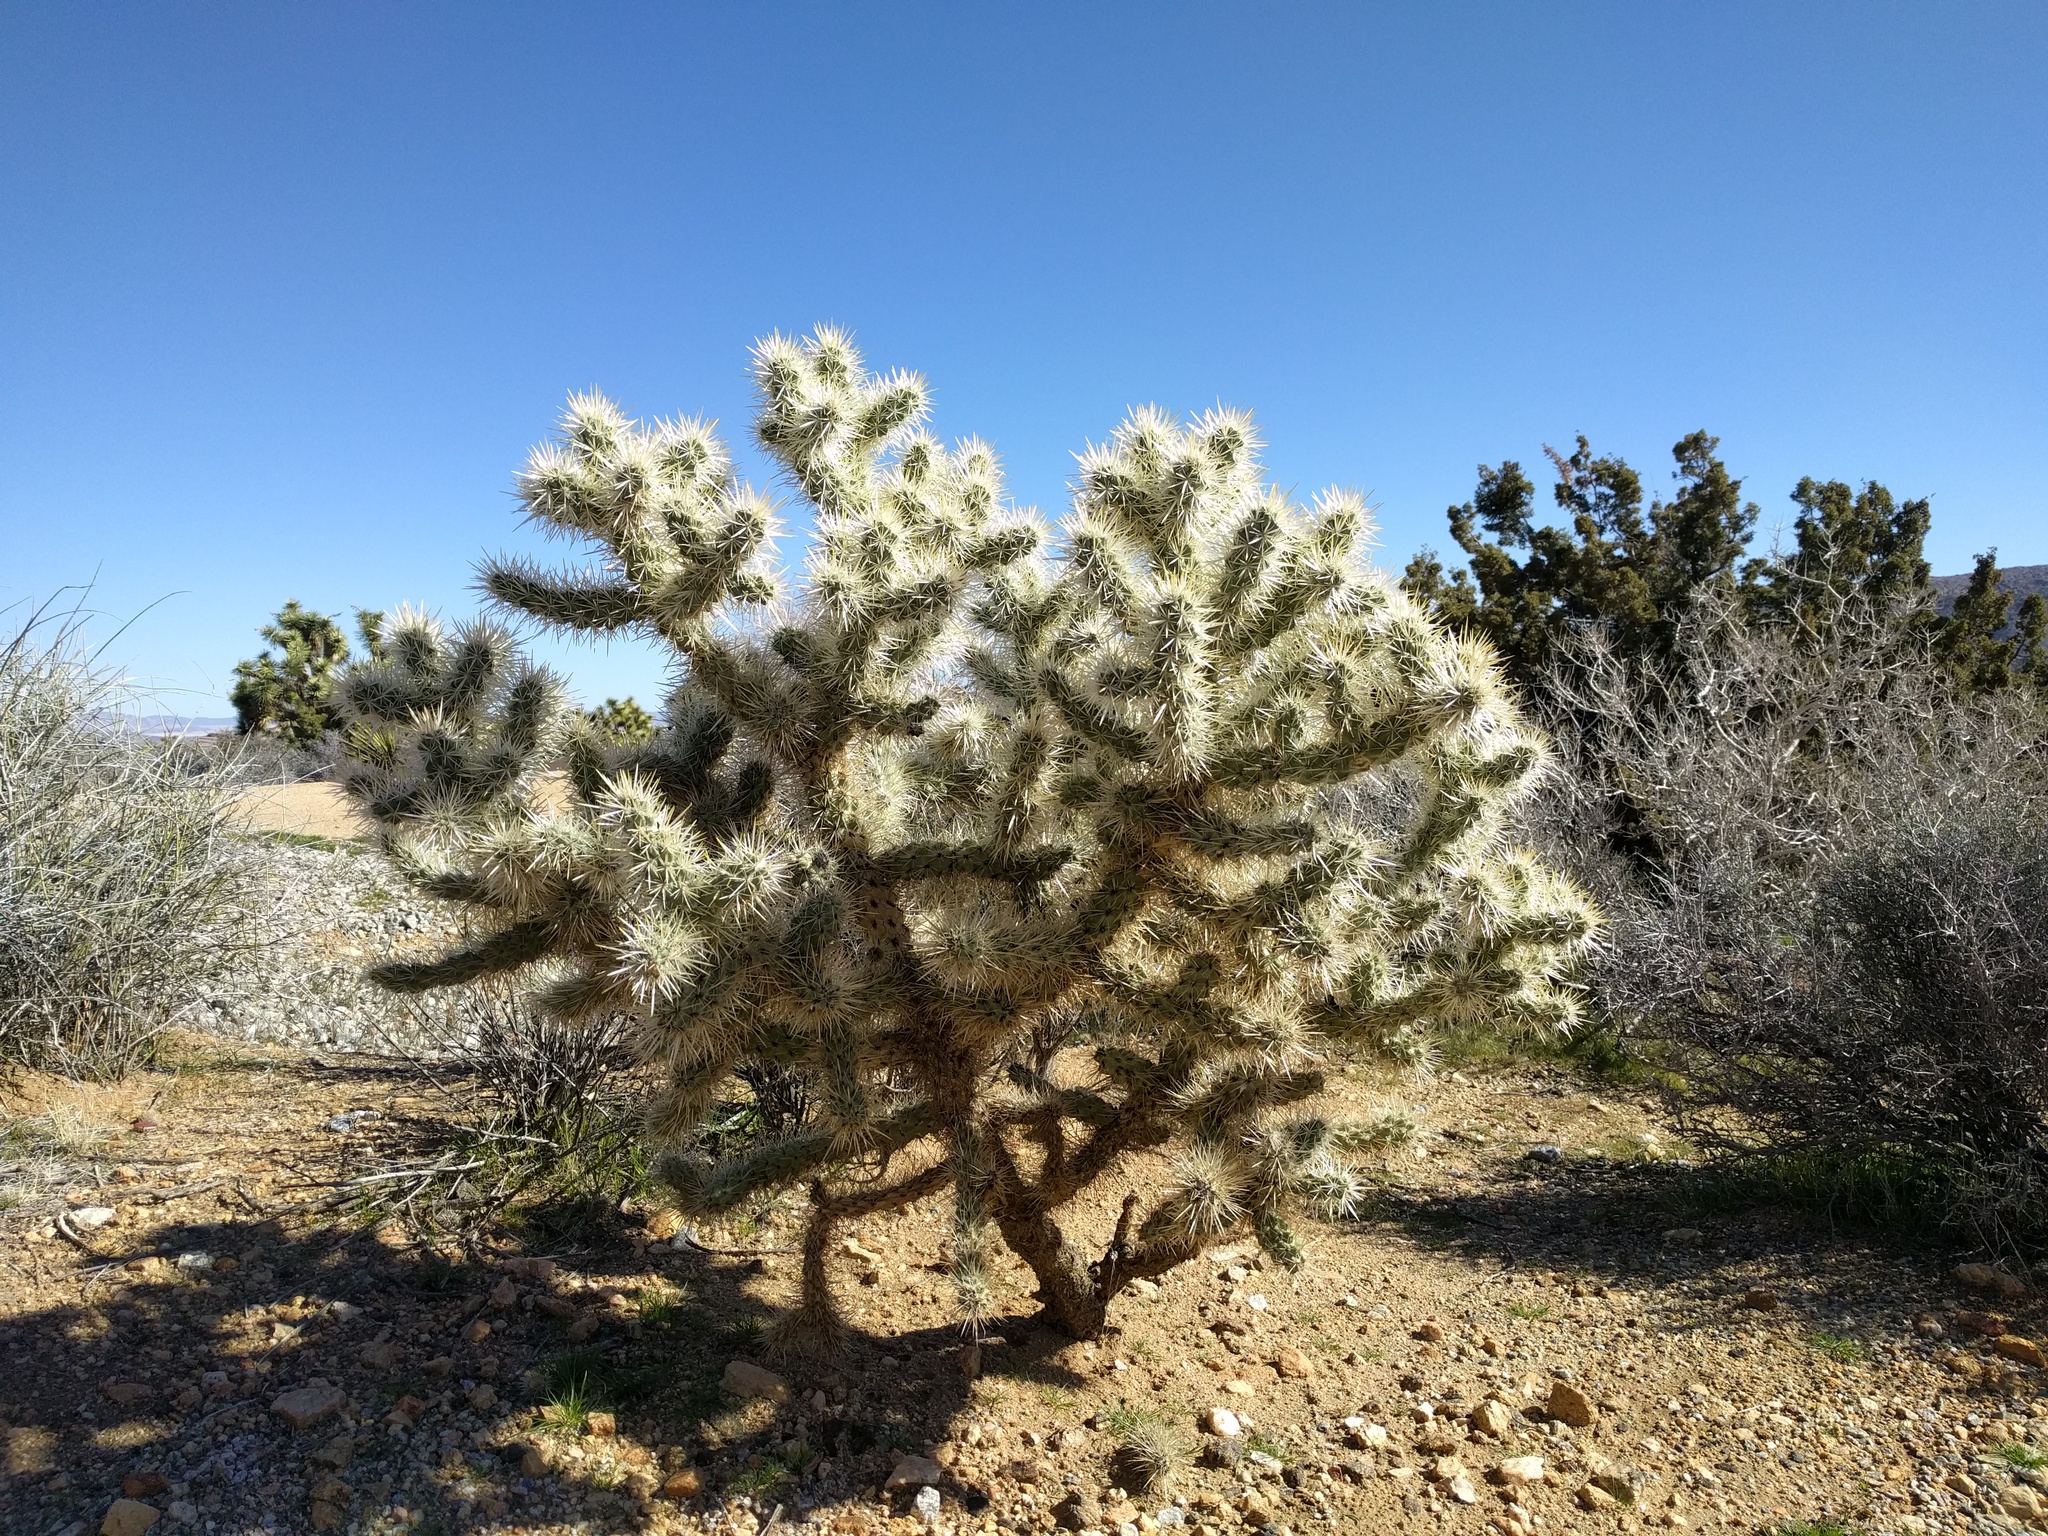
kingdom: Plantae
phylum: Tracheophyta
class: Magnoliopsida
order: Caryophyllales
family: Cactaceae
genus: Cylindropuntia
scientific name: Cylindropuntia echinocarpa
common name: Ground cholla
